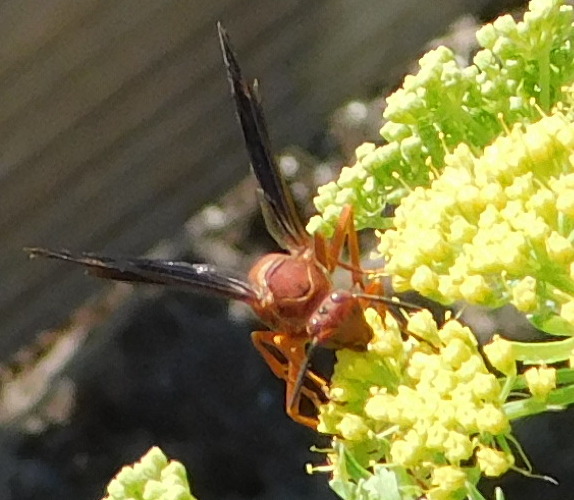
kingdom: Animalia
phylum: Arthropoda
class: Insecta
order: Hymenoptera
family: Vespidae
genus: Fuscopolistes
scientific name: Fuscopolistes
